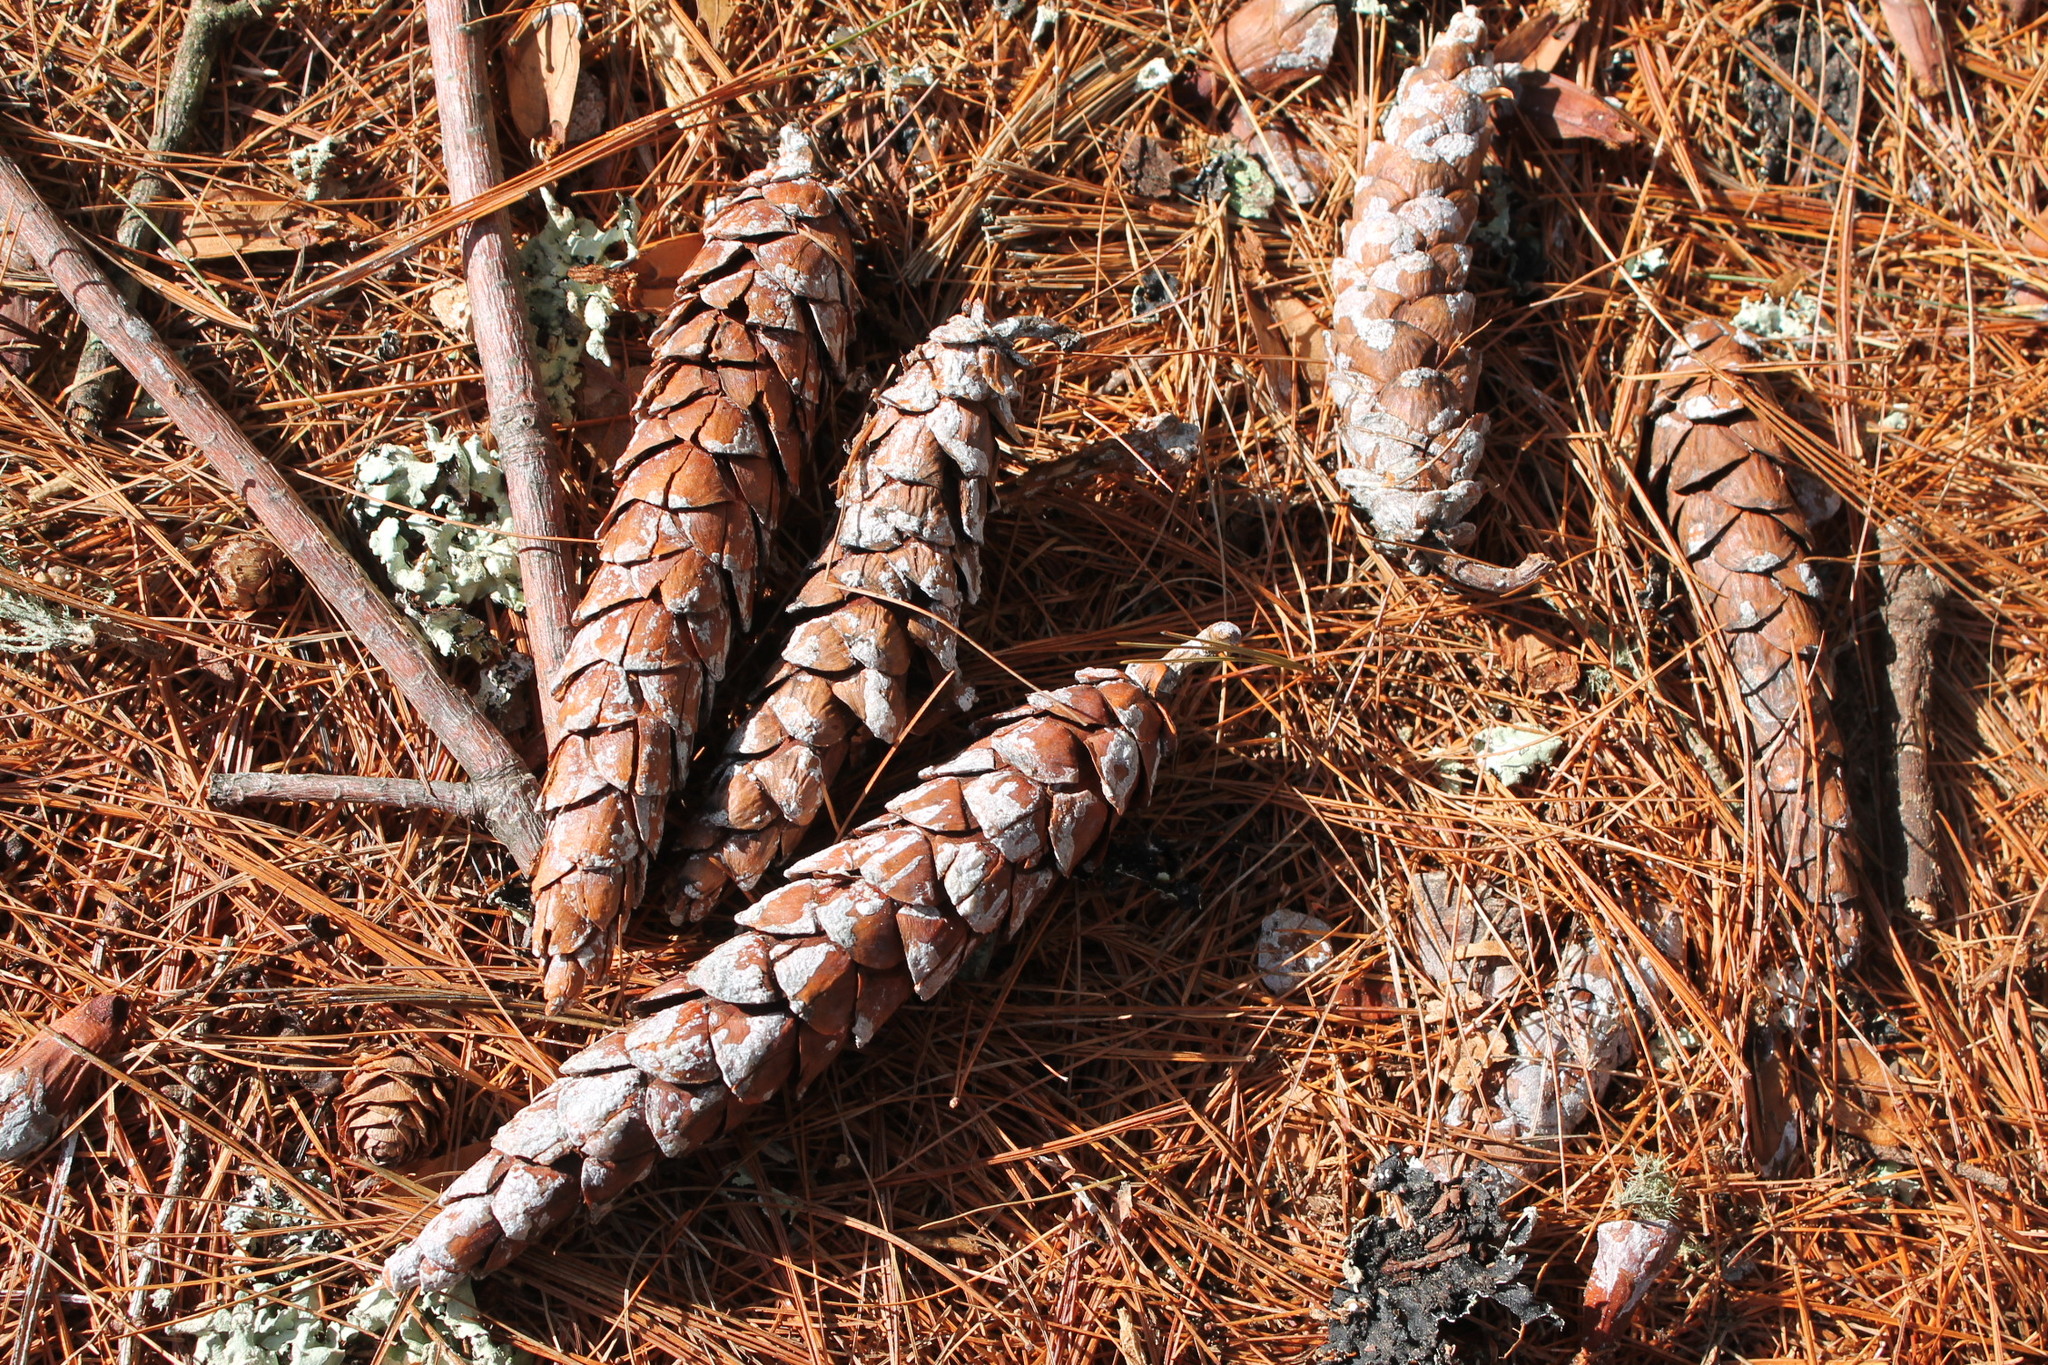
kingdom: Plantae
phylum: Tracheophyta
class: Pinopsida
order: Pinales
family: Pinaceae
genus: Pinus
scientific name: Pinus strobus
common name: Weymouth pine
